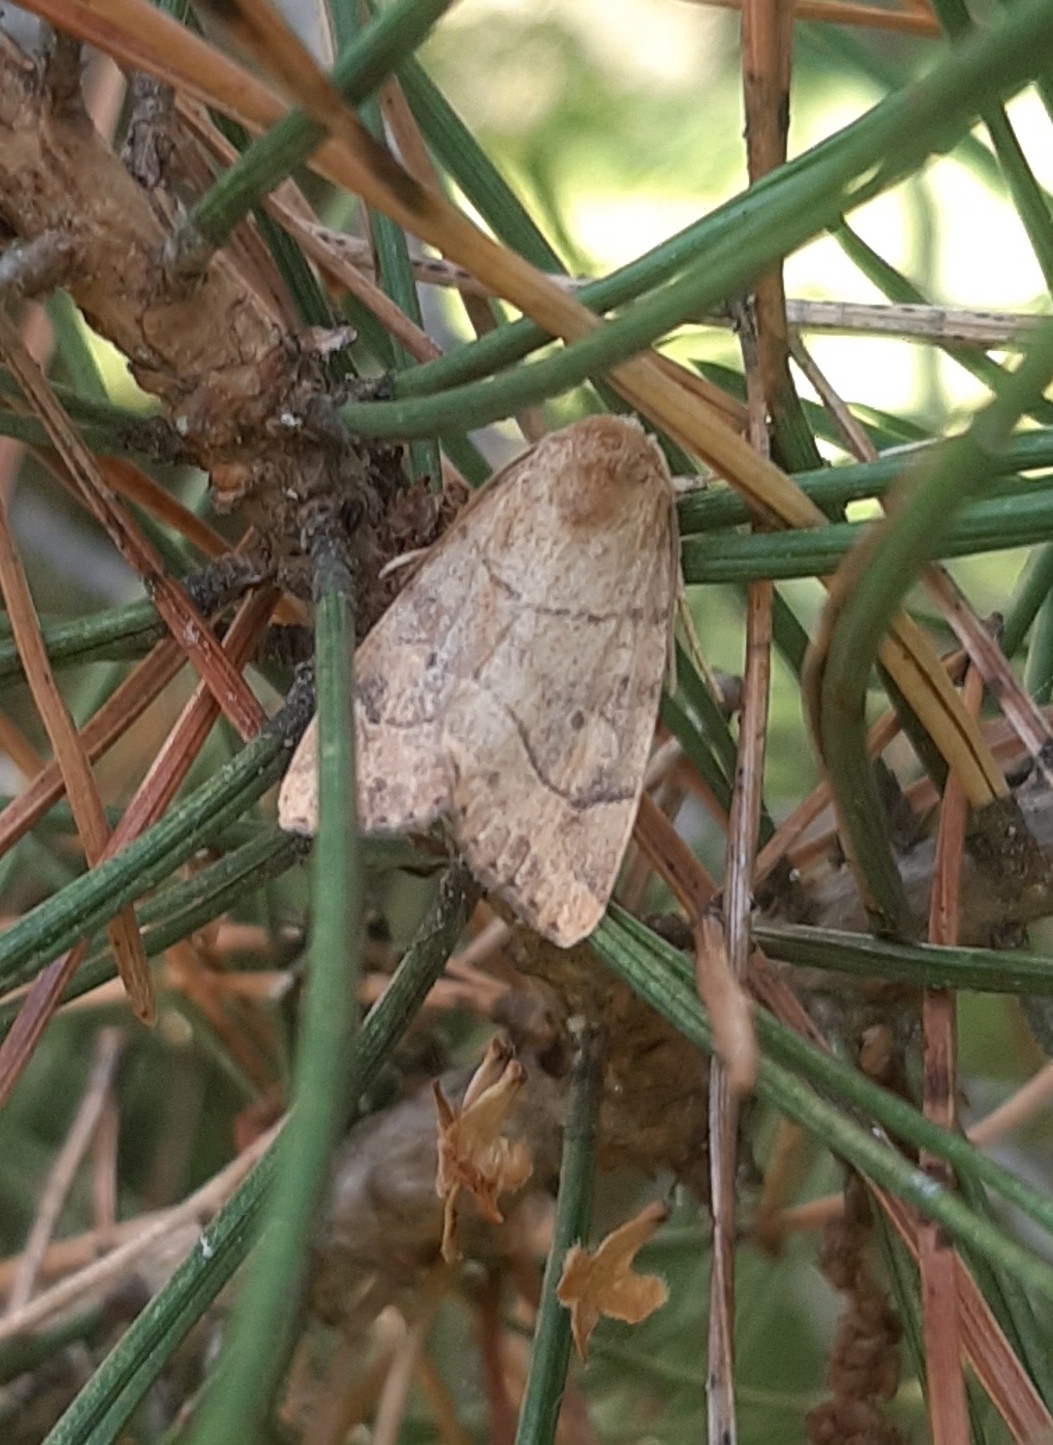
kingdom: Animalia
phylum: Arthropoda
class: Insecta
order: Lepidoptera
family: Noctuidae
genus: Cosmia
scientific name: Cosmia trapezina
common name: Dun-bar
